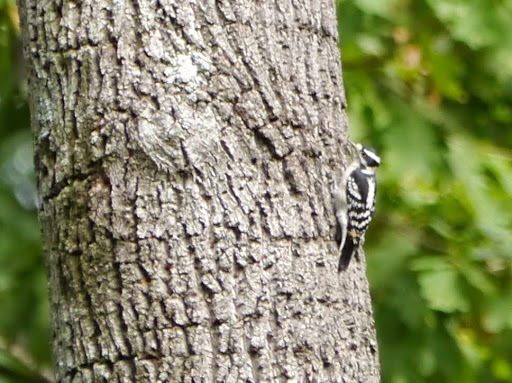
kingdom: Animalia
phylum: Chordata
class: Aves
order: Piciformes
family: Picidae
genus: Dryobates
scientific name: Dryobates pubescens
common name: Downy woodpecker
